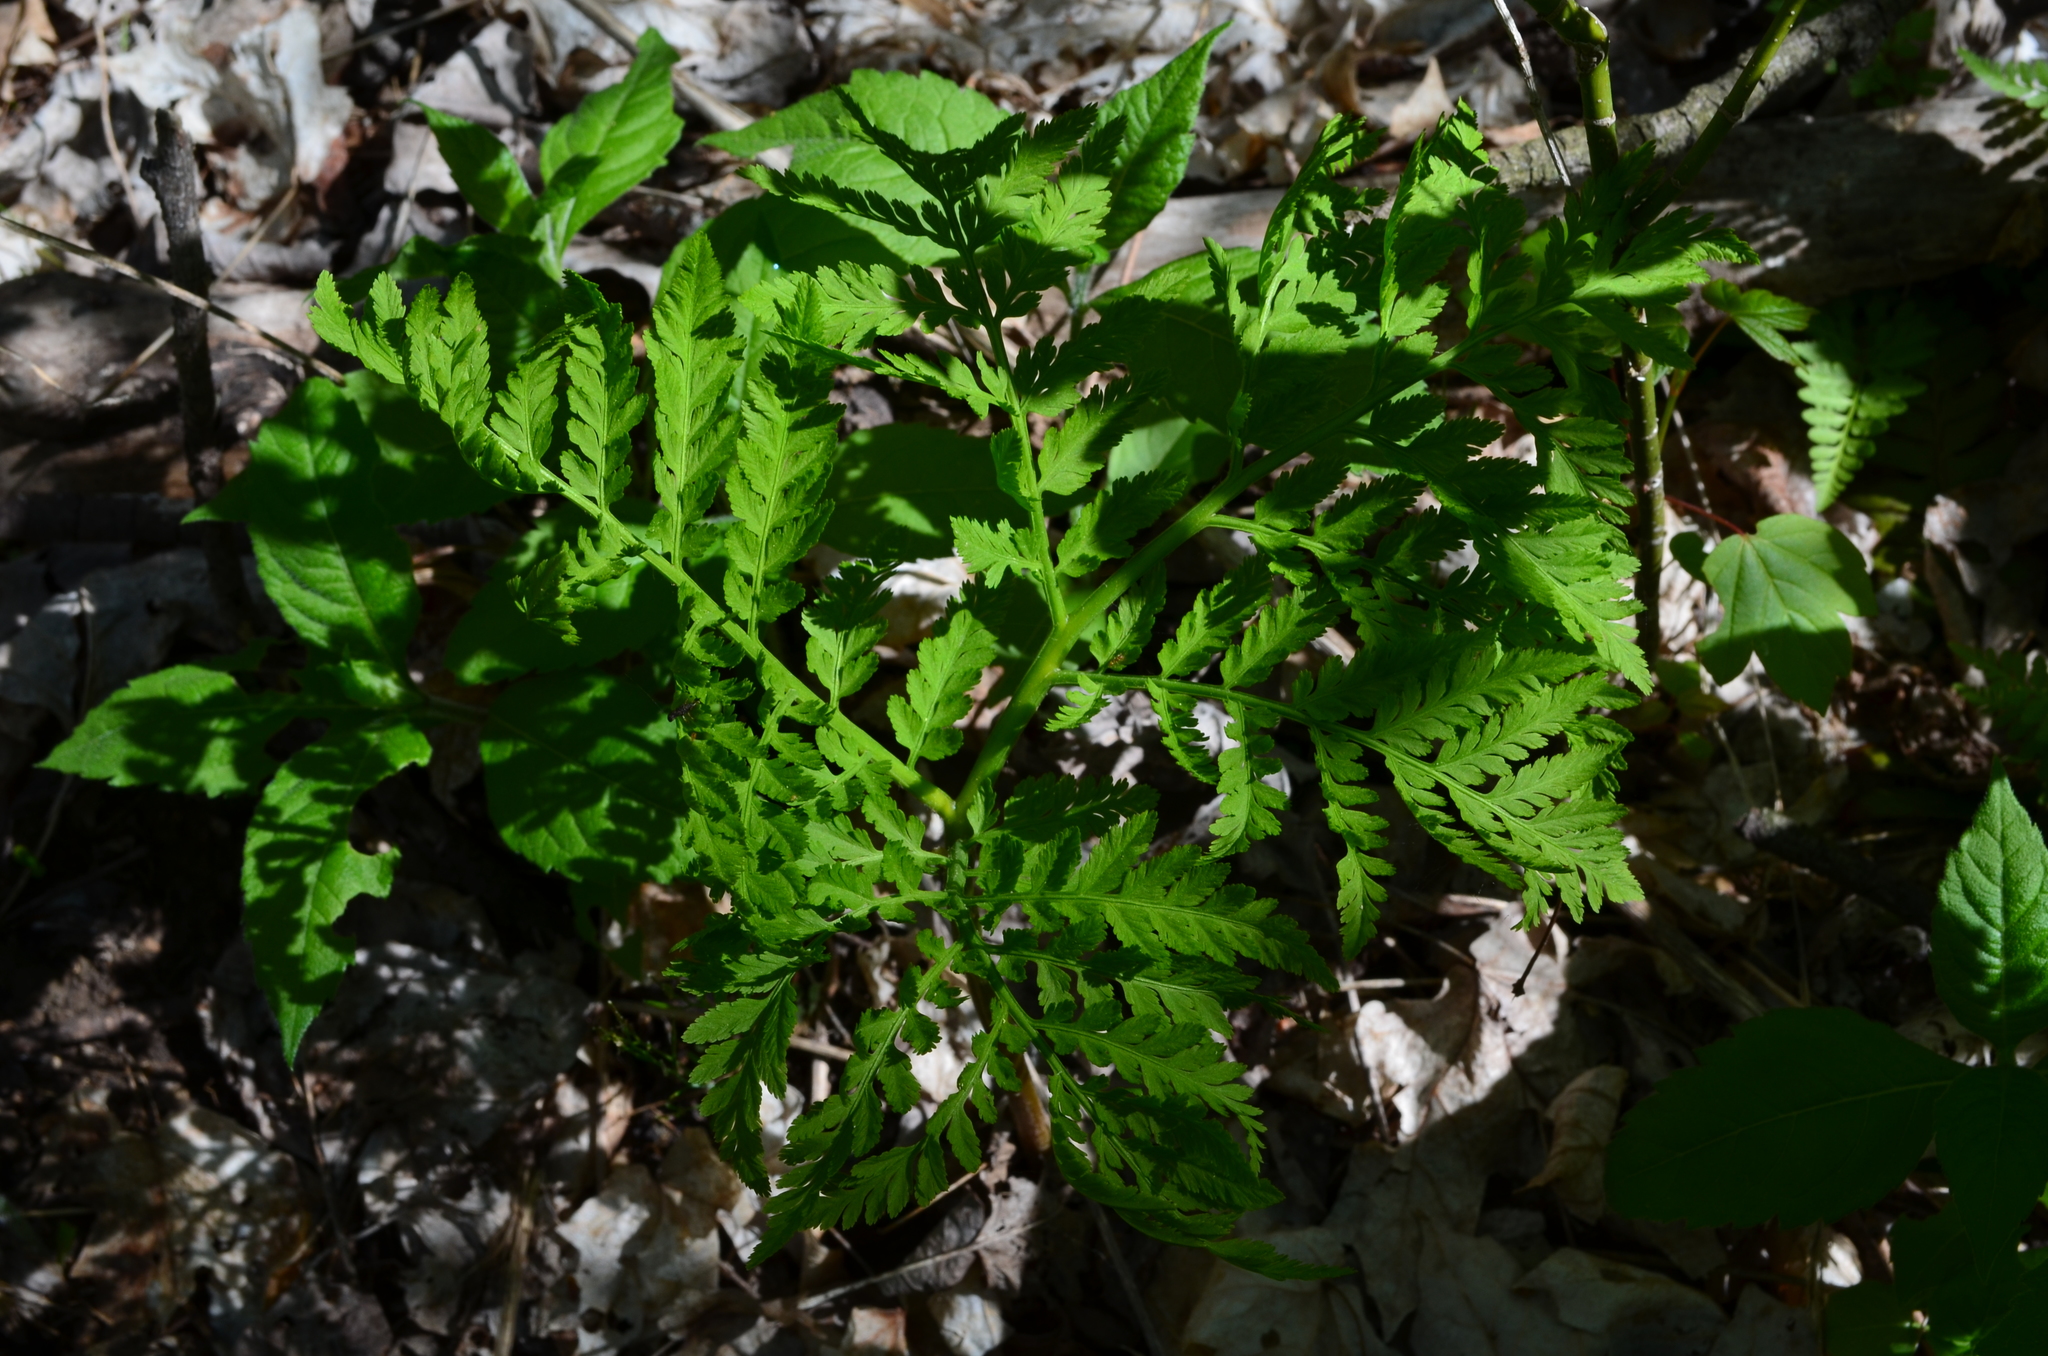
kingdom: Plantae
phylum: Tracheophyta
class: Polypodiopsida
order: Ophioglossales
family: Ophioglossaceae
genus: Botrypus
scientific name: Botrypus virginianus
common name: Common grapefern
